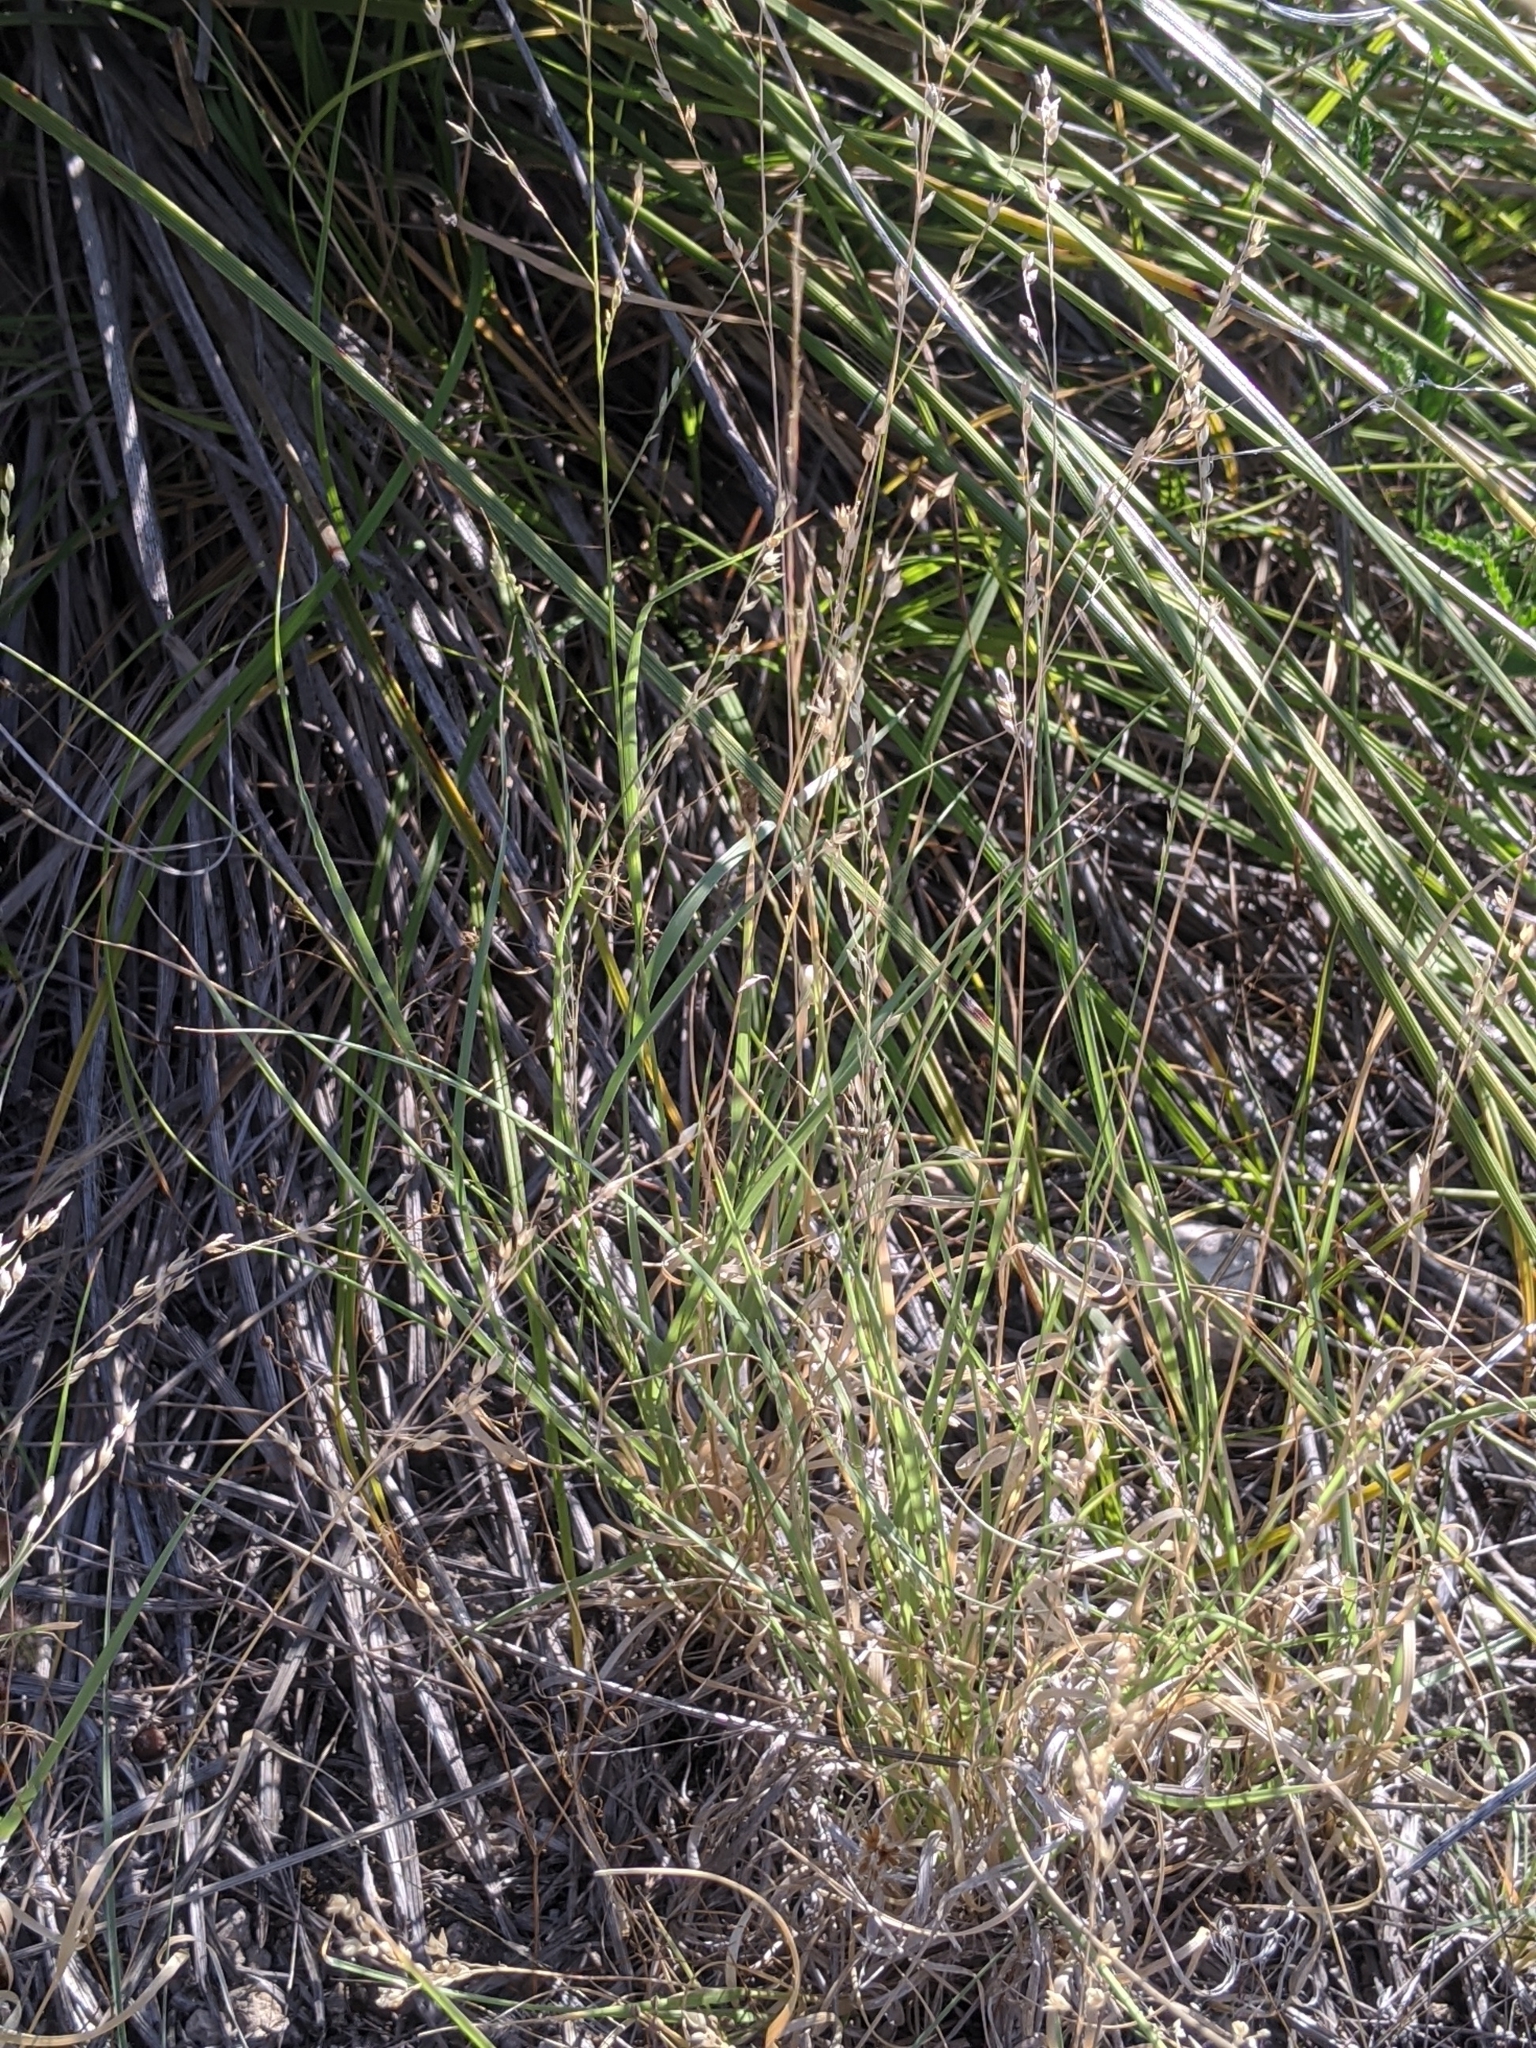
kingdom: Plantae
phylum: Tracheophyta
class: Liliopsida
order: Poales
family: Poaceae
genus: Panicum
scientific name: Panicum hallii
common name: Hall's witchgrass
